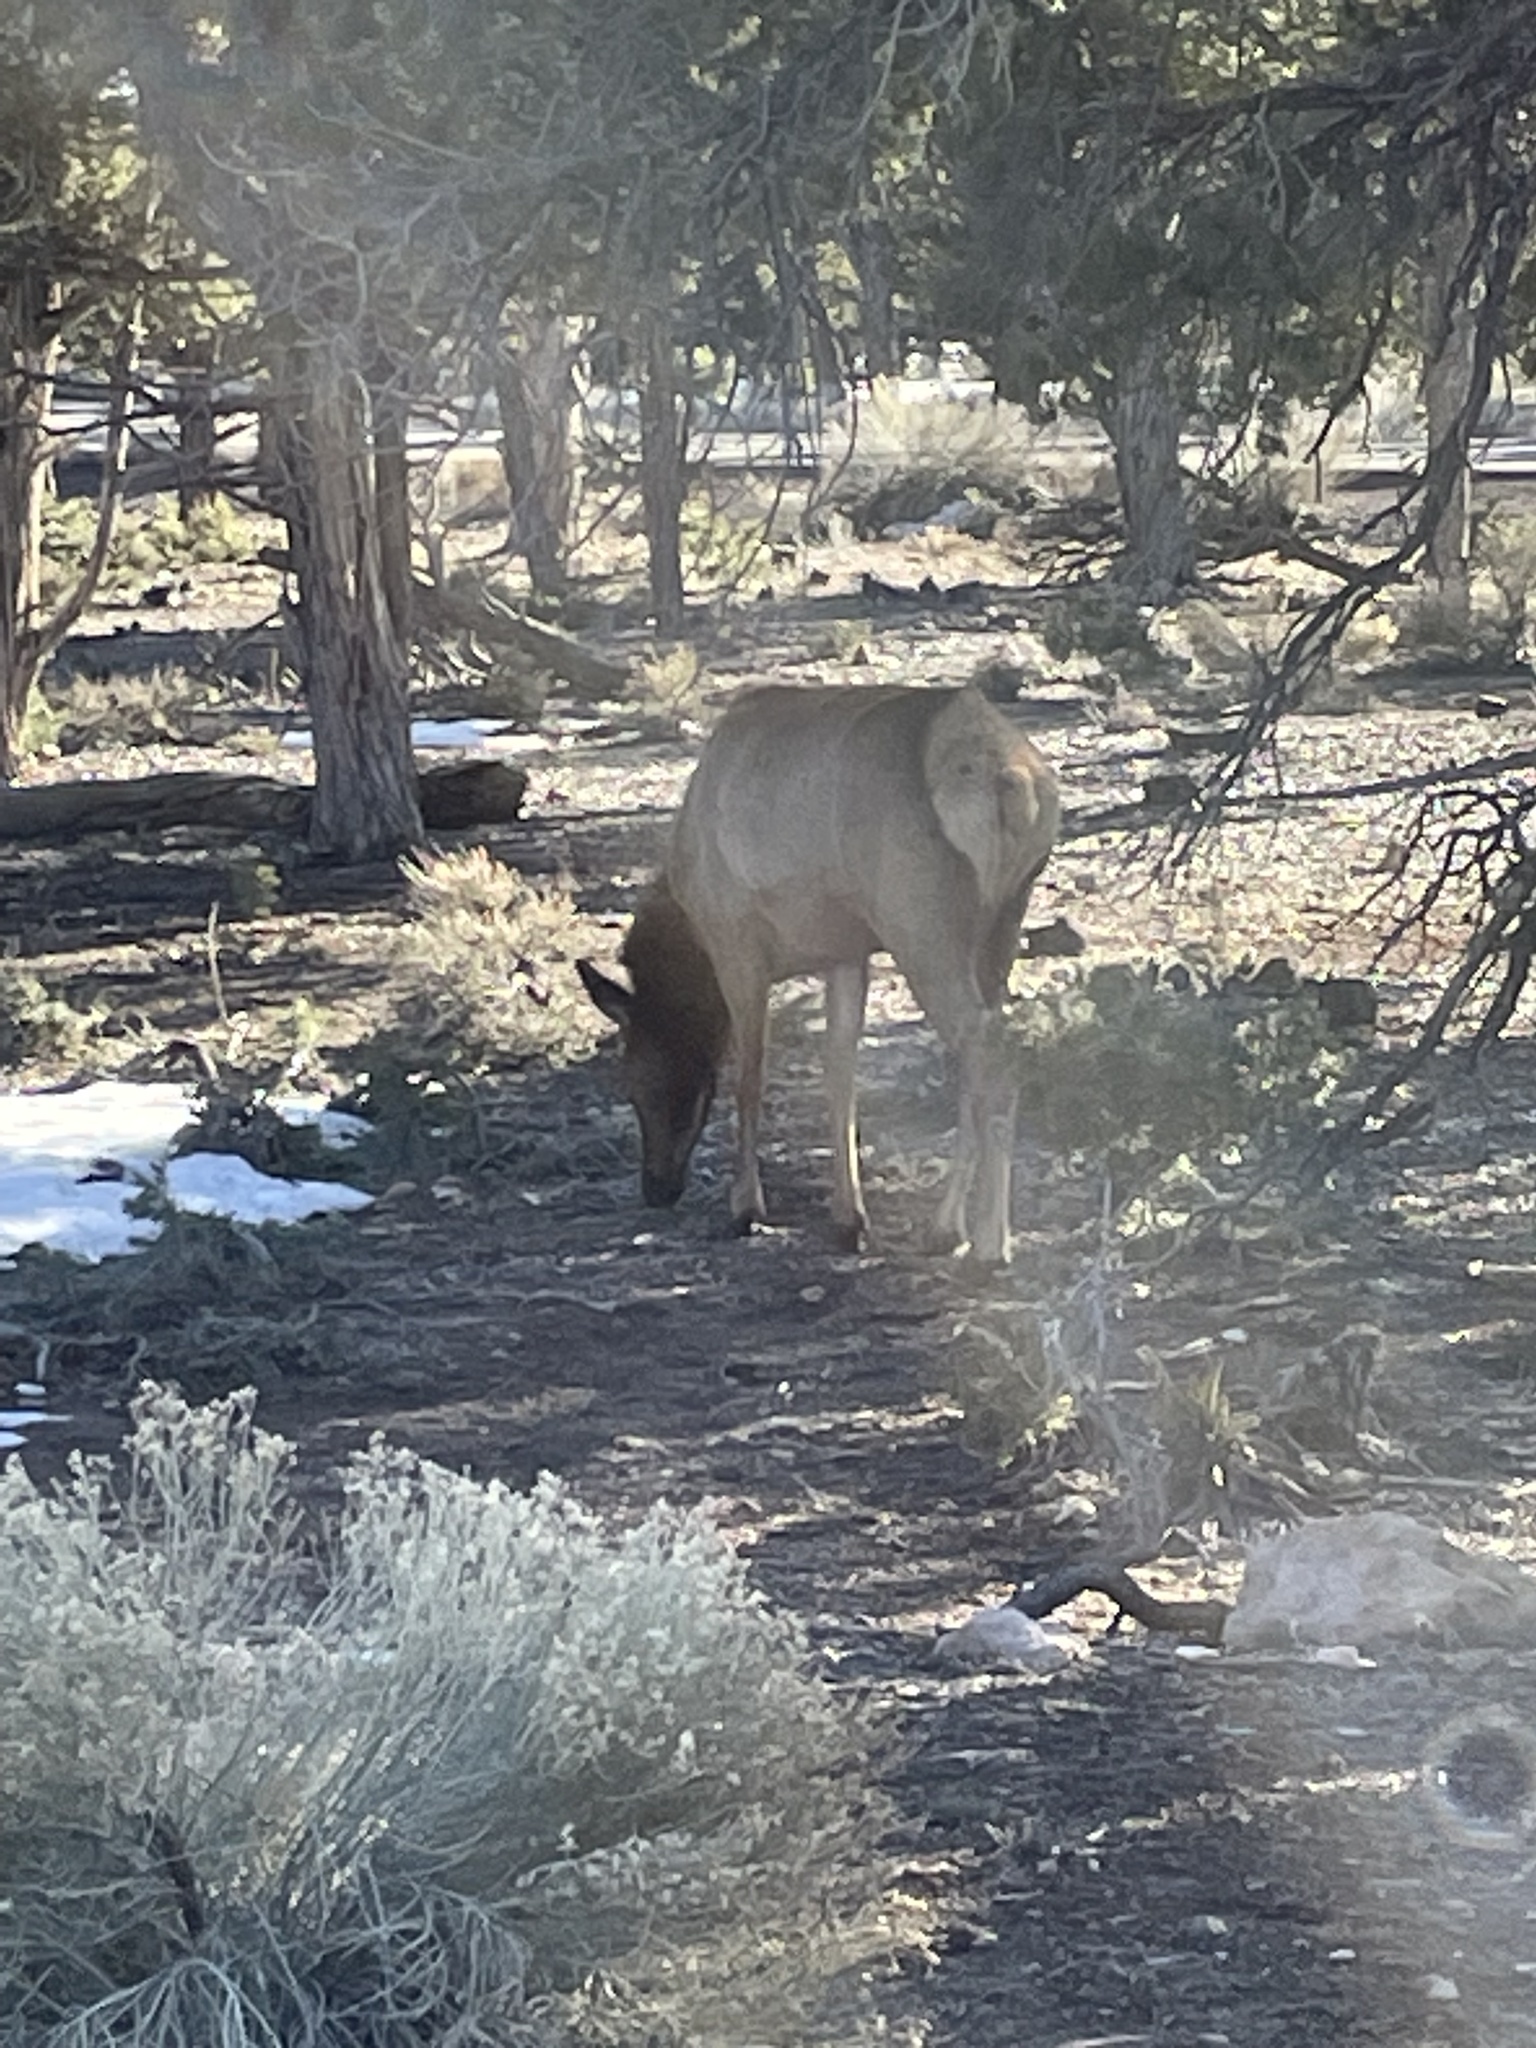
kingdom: Animalia
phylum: Chordata
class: Mammalia
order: Artiodactyla
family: Cervidae
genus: Cervus
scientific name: Cervus elaphus
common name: Red deer
